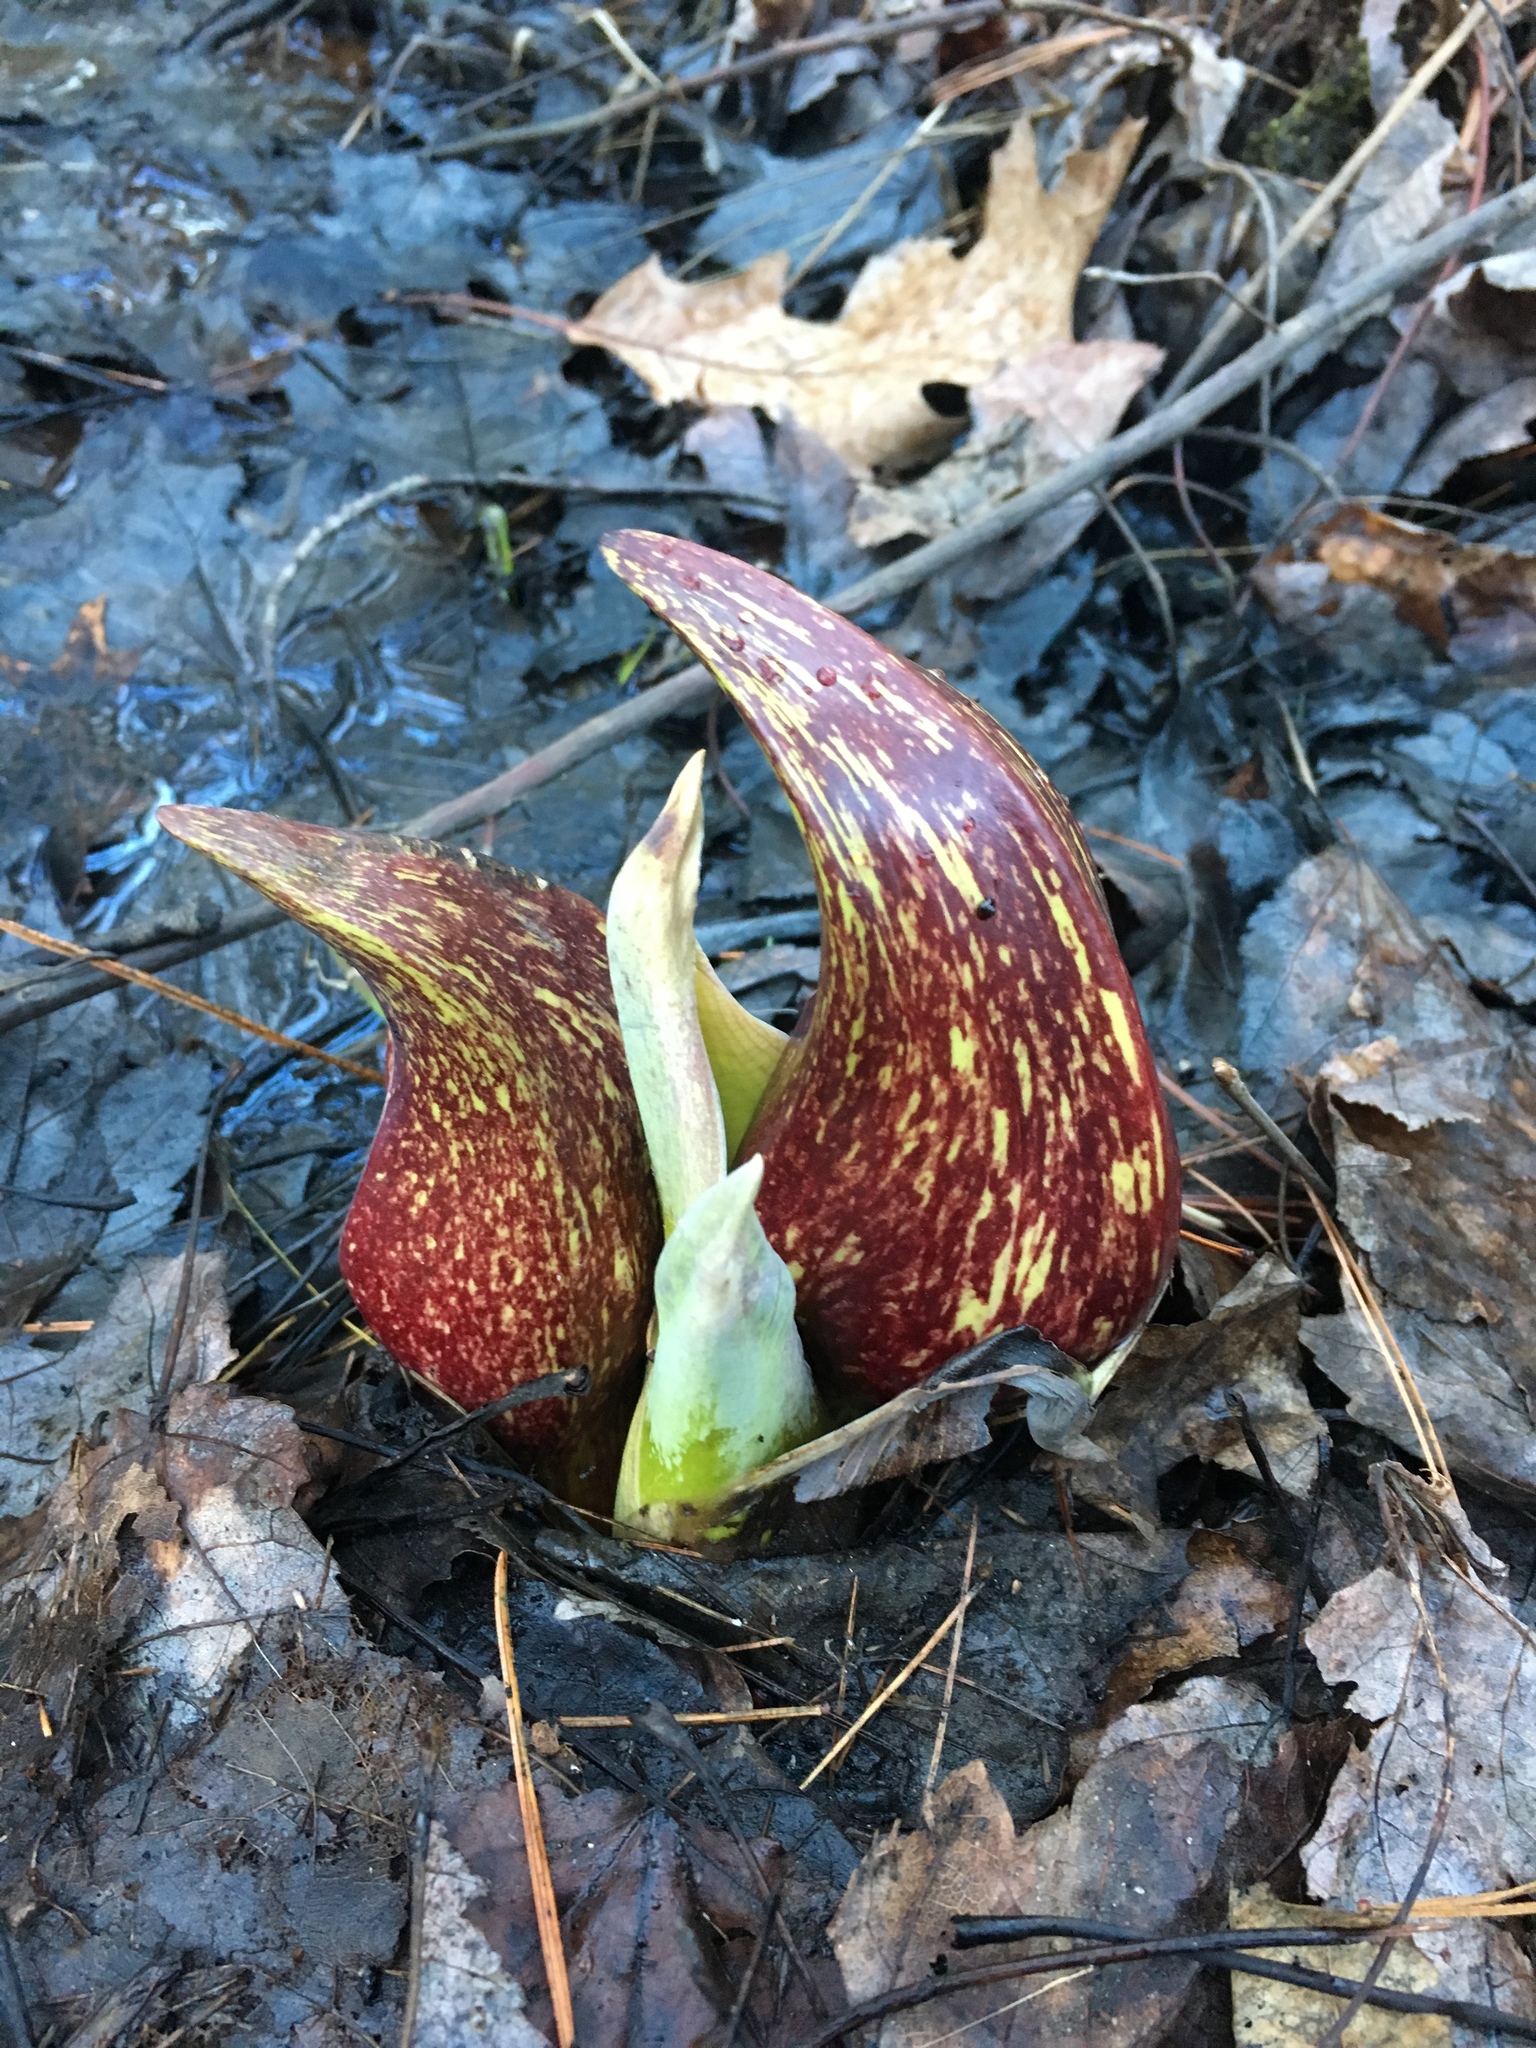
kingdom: Plantae
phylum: Tracheophyta
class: Liliopsida
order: Alismatales
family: Araceae
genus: Symplocarpus
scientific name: Symplocarpus foetidus
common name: Eastern skunk cabbage
